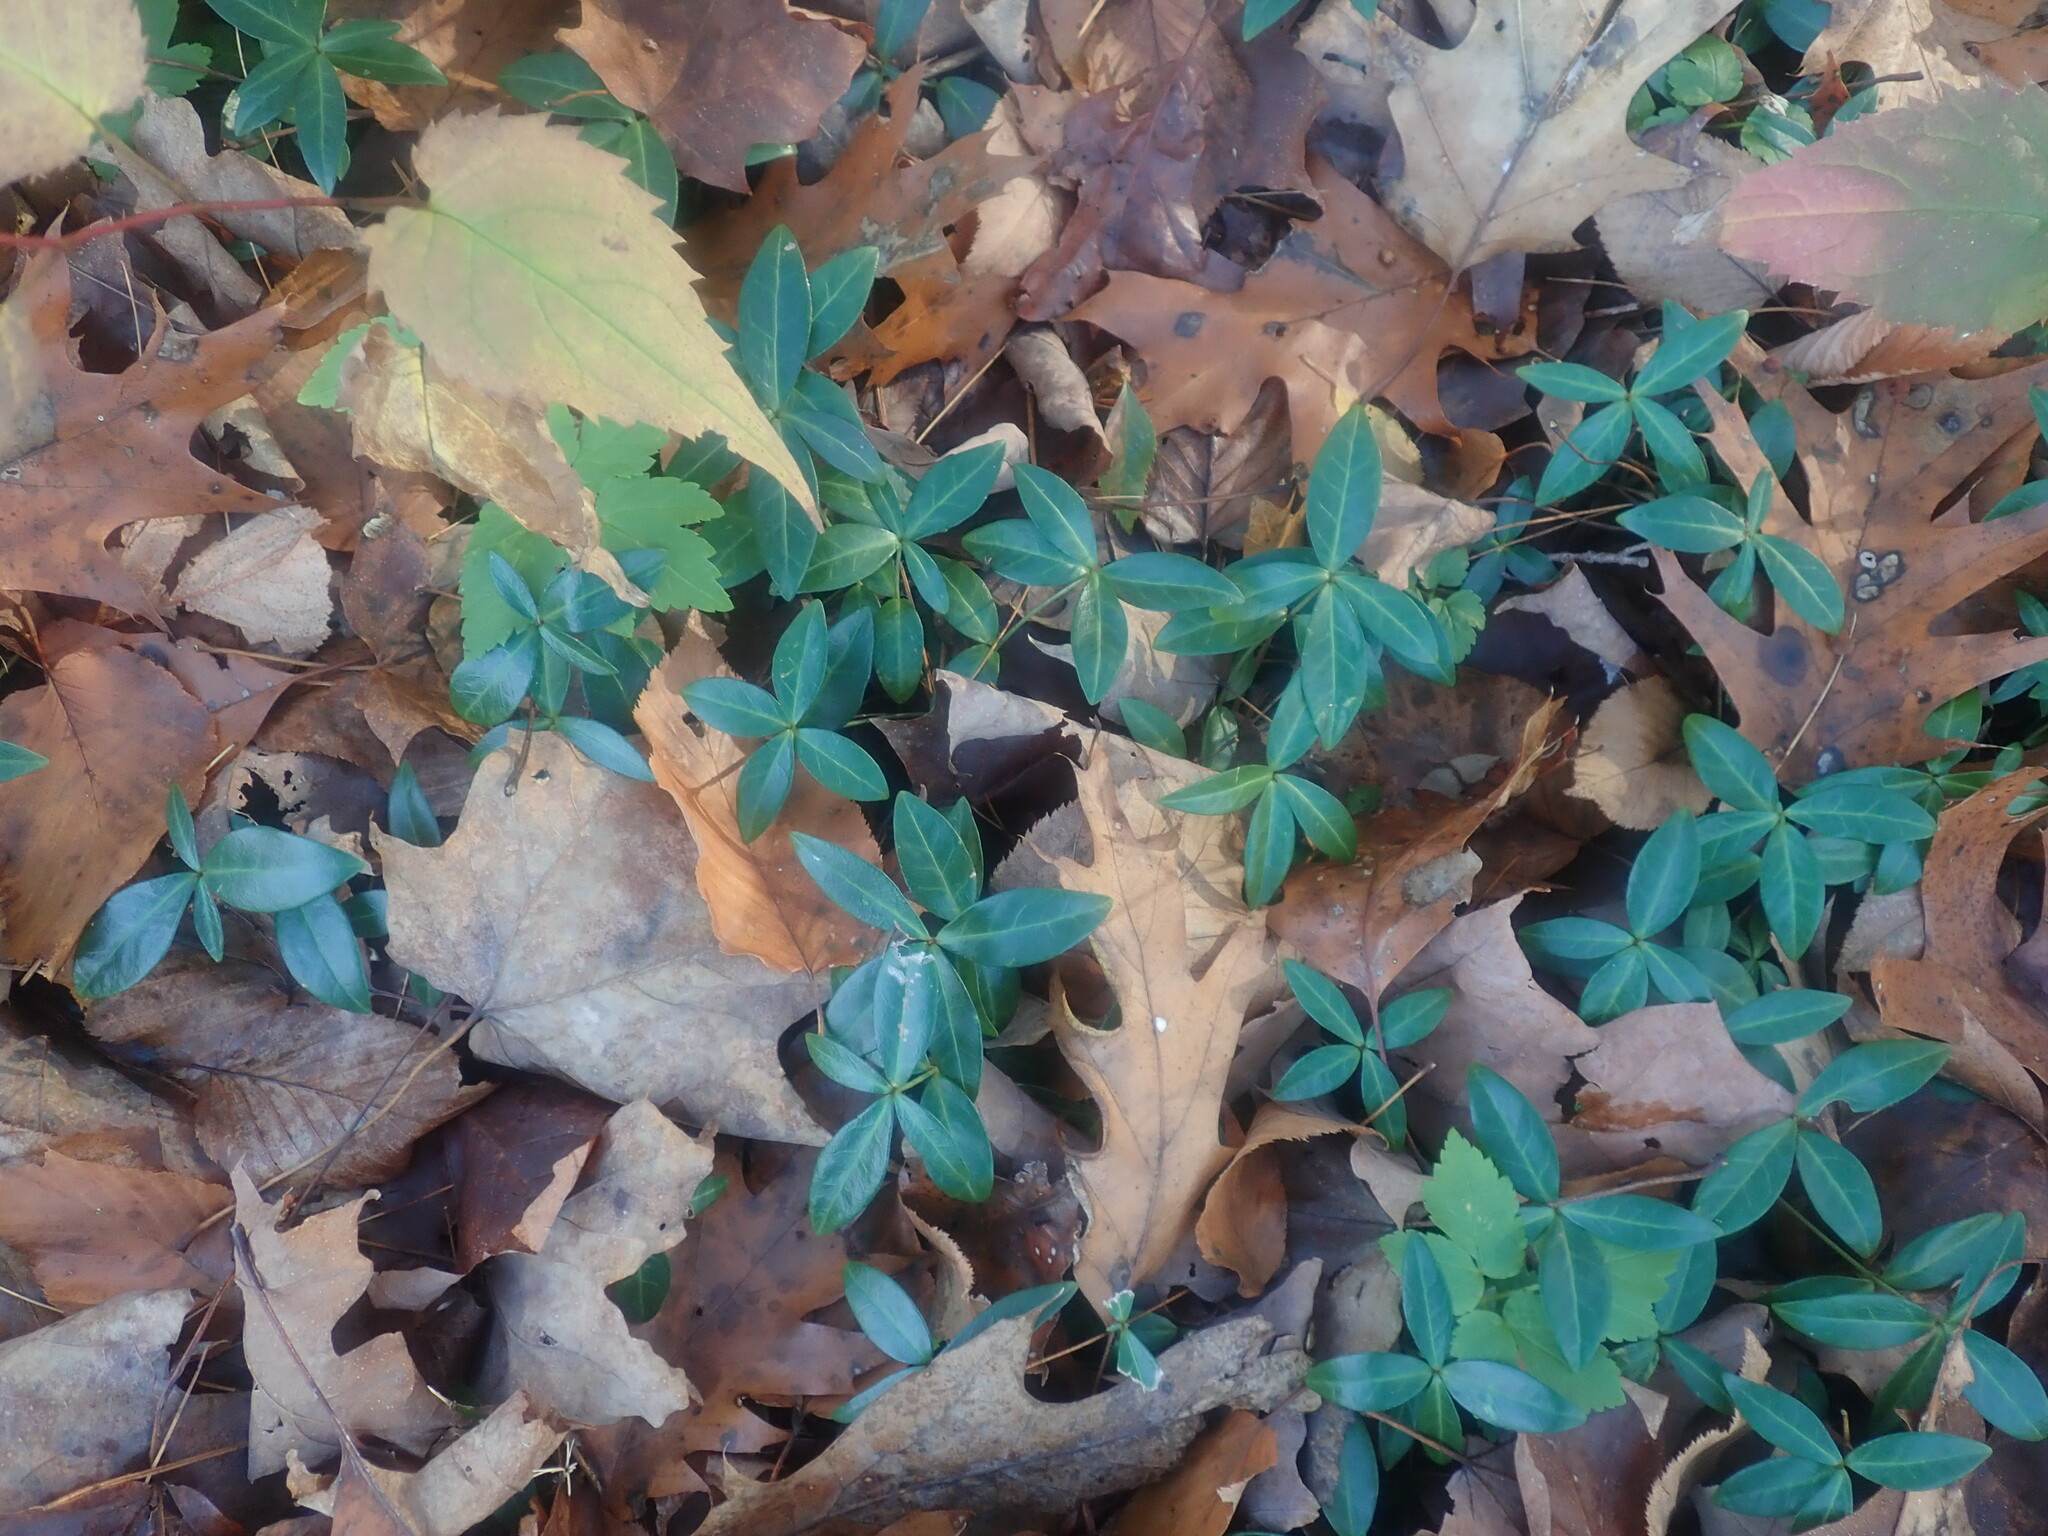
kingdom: Plantae
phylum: Tracheophyta
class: Magnoliopsida
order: Gentianales
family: Apocynaceae
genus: Vinca
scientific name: Vinca minor
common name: Lesser periwinkle
